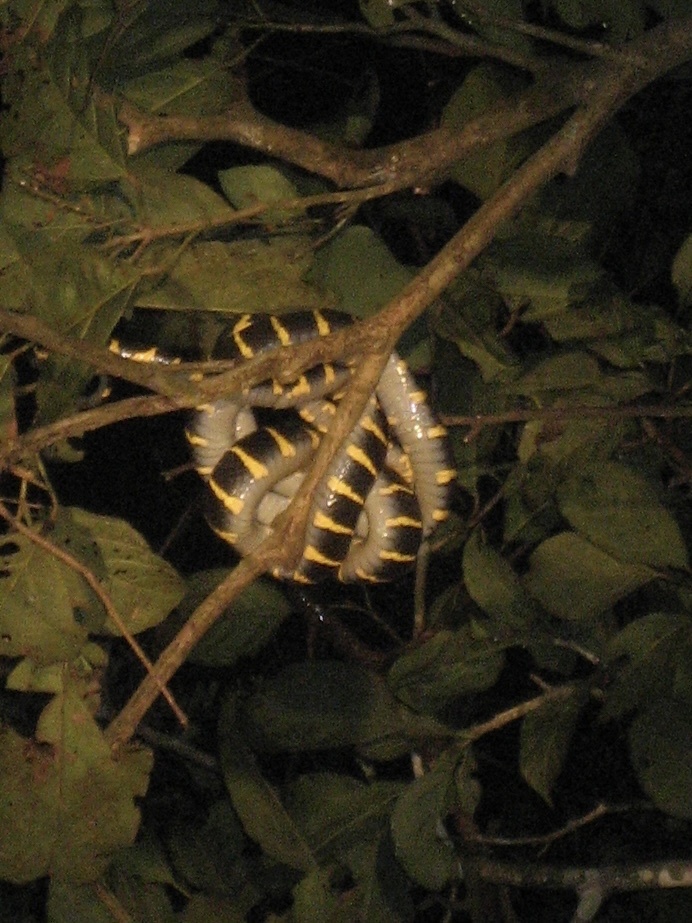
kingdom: Animalia
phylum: Chordata
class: Squamata
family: Colubridae
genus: Boiga
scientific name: Boiga dendrophila
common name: Gold-ringed cat snake
